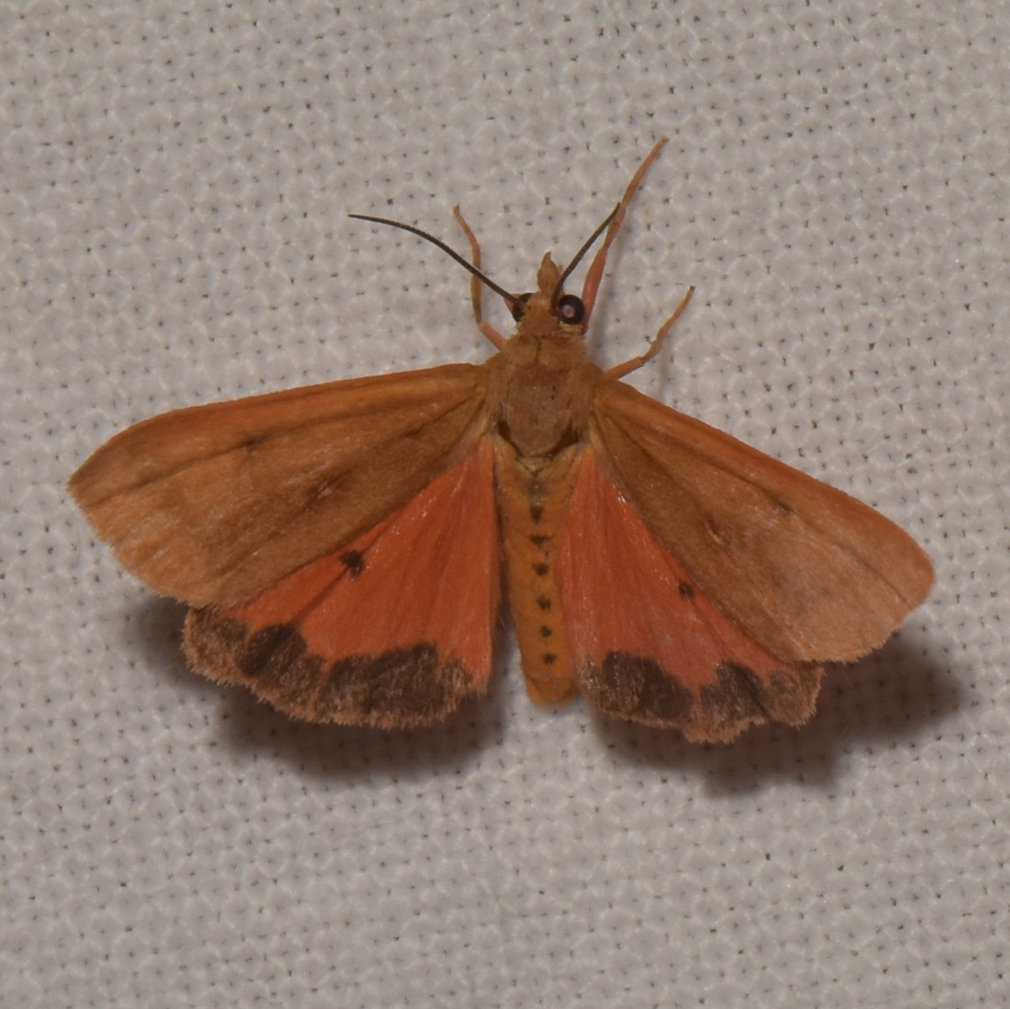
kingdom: Animalia
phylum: Arthropoda
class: Insecta
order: Lepidoptera
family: Erebidae
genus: Virbia
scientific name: Virbia aurantiaca
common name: Orange virbia moth
